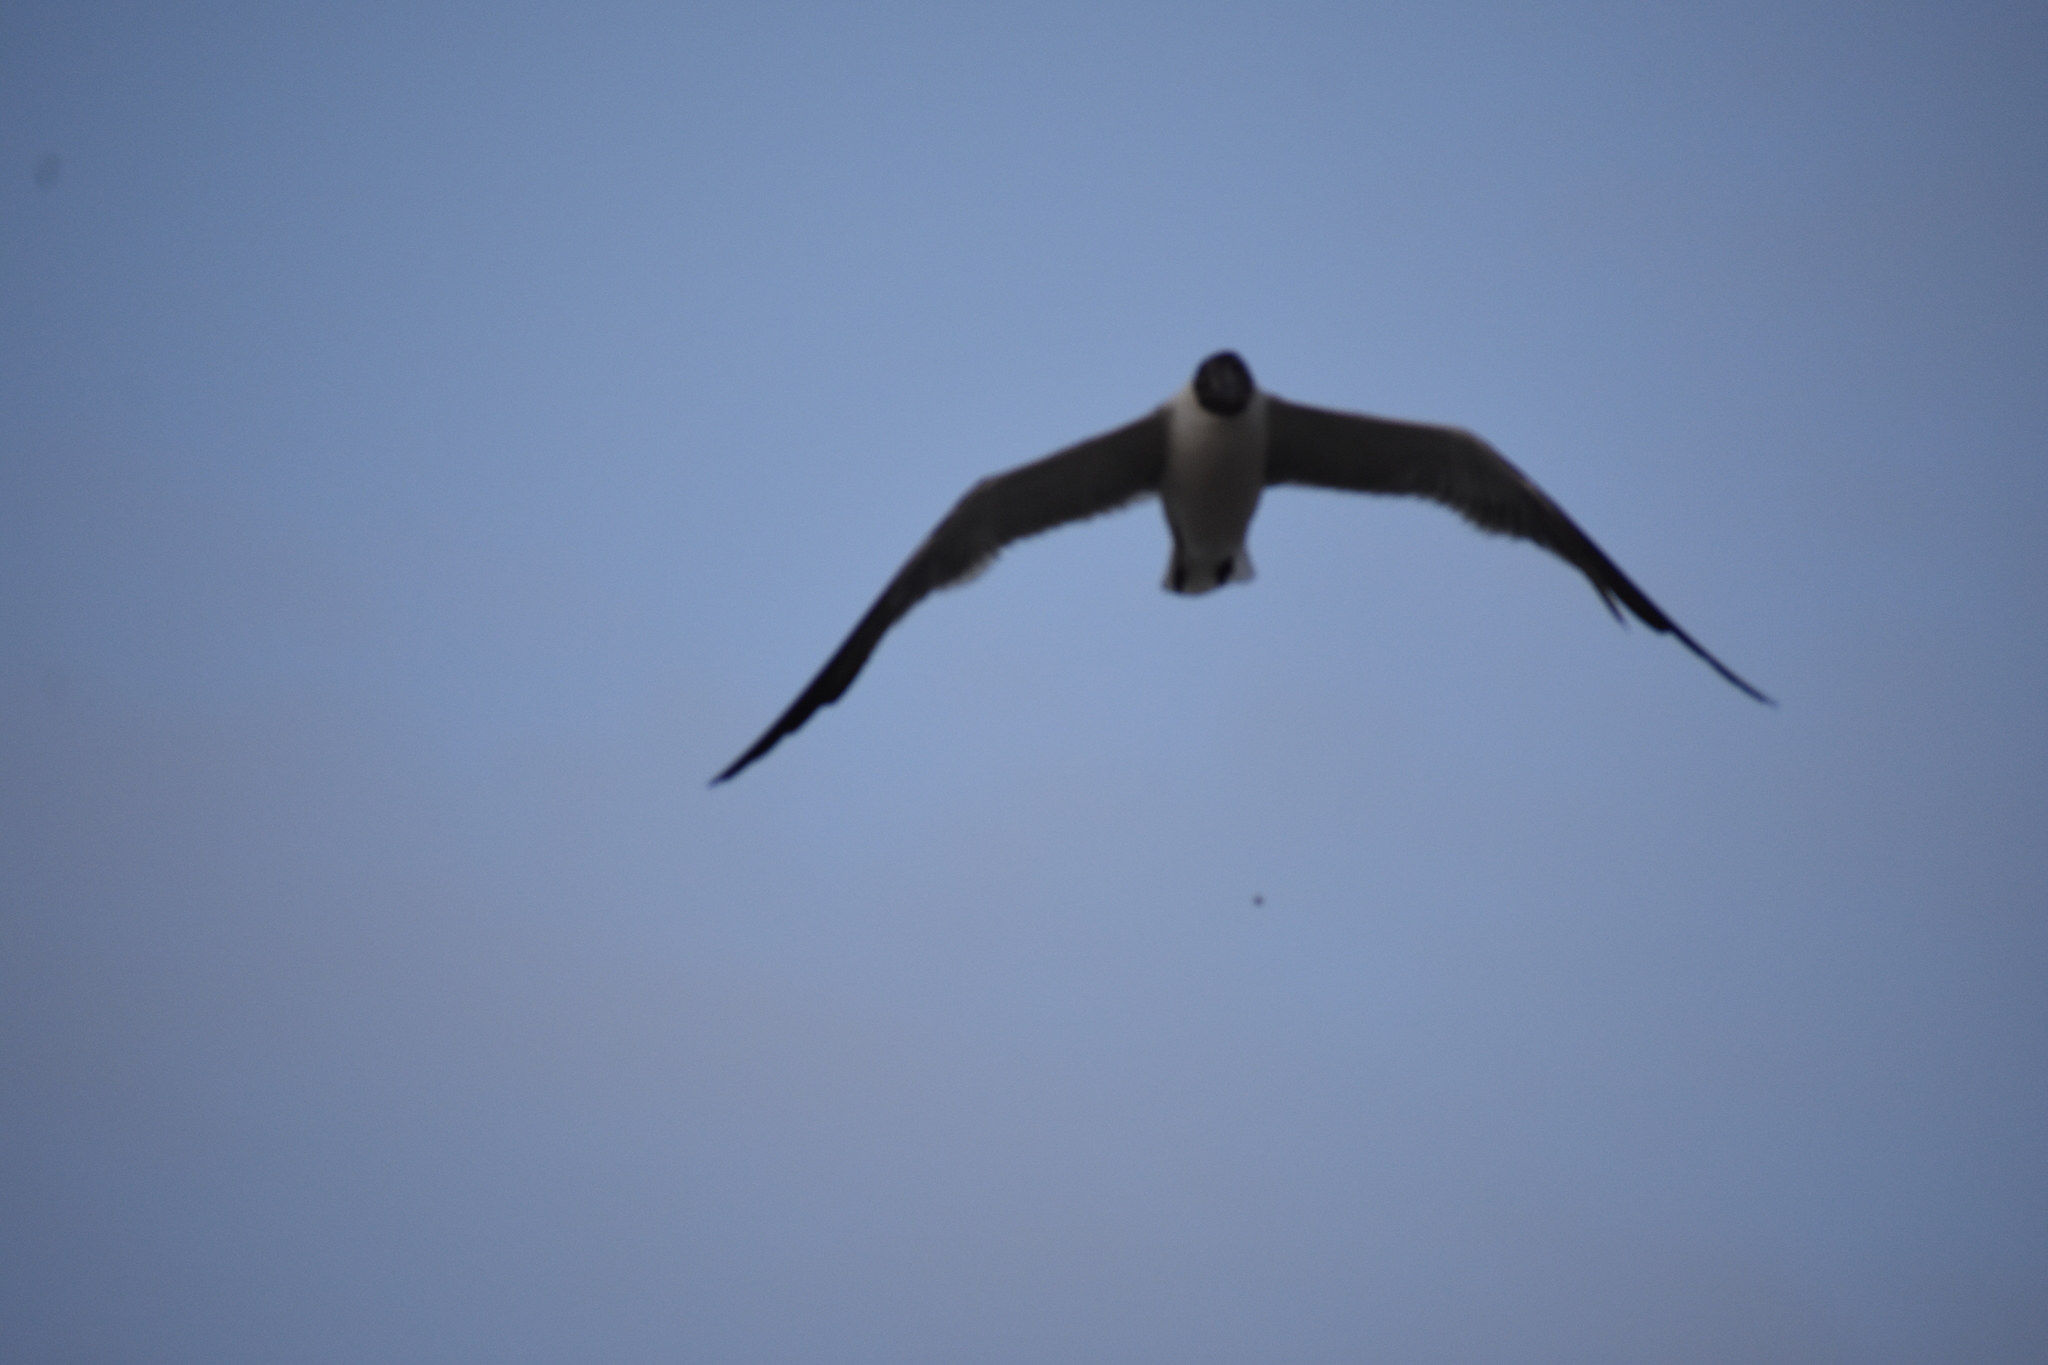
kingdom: Animalia
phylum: Chordata
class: Aves
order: Charadriiformes
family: Laridae
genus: Leucophaeus
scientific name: Leucophaeus atricilla
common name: Laughing gull
